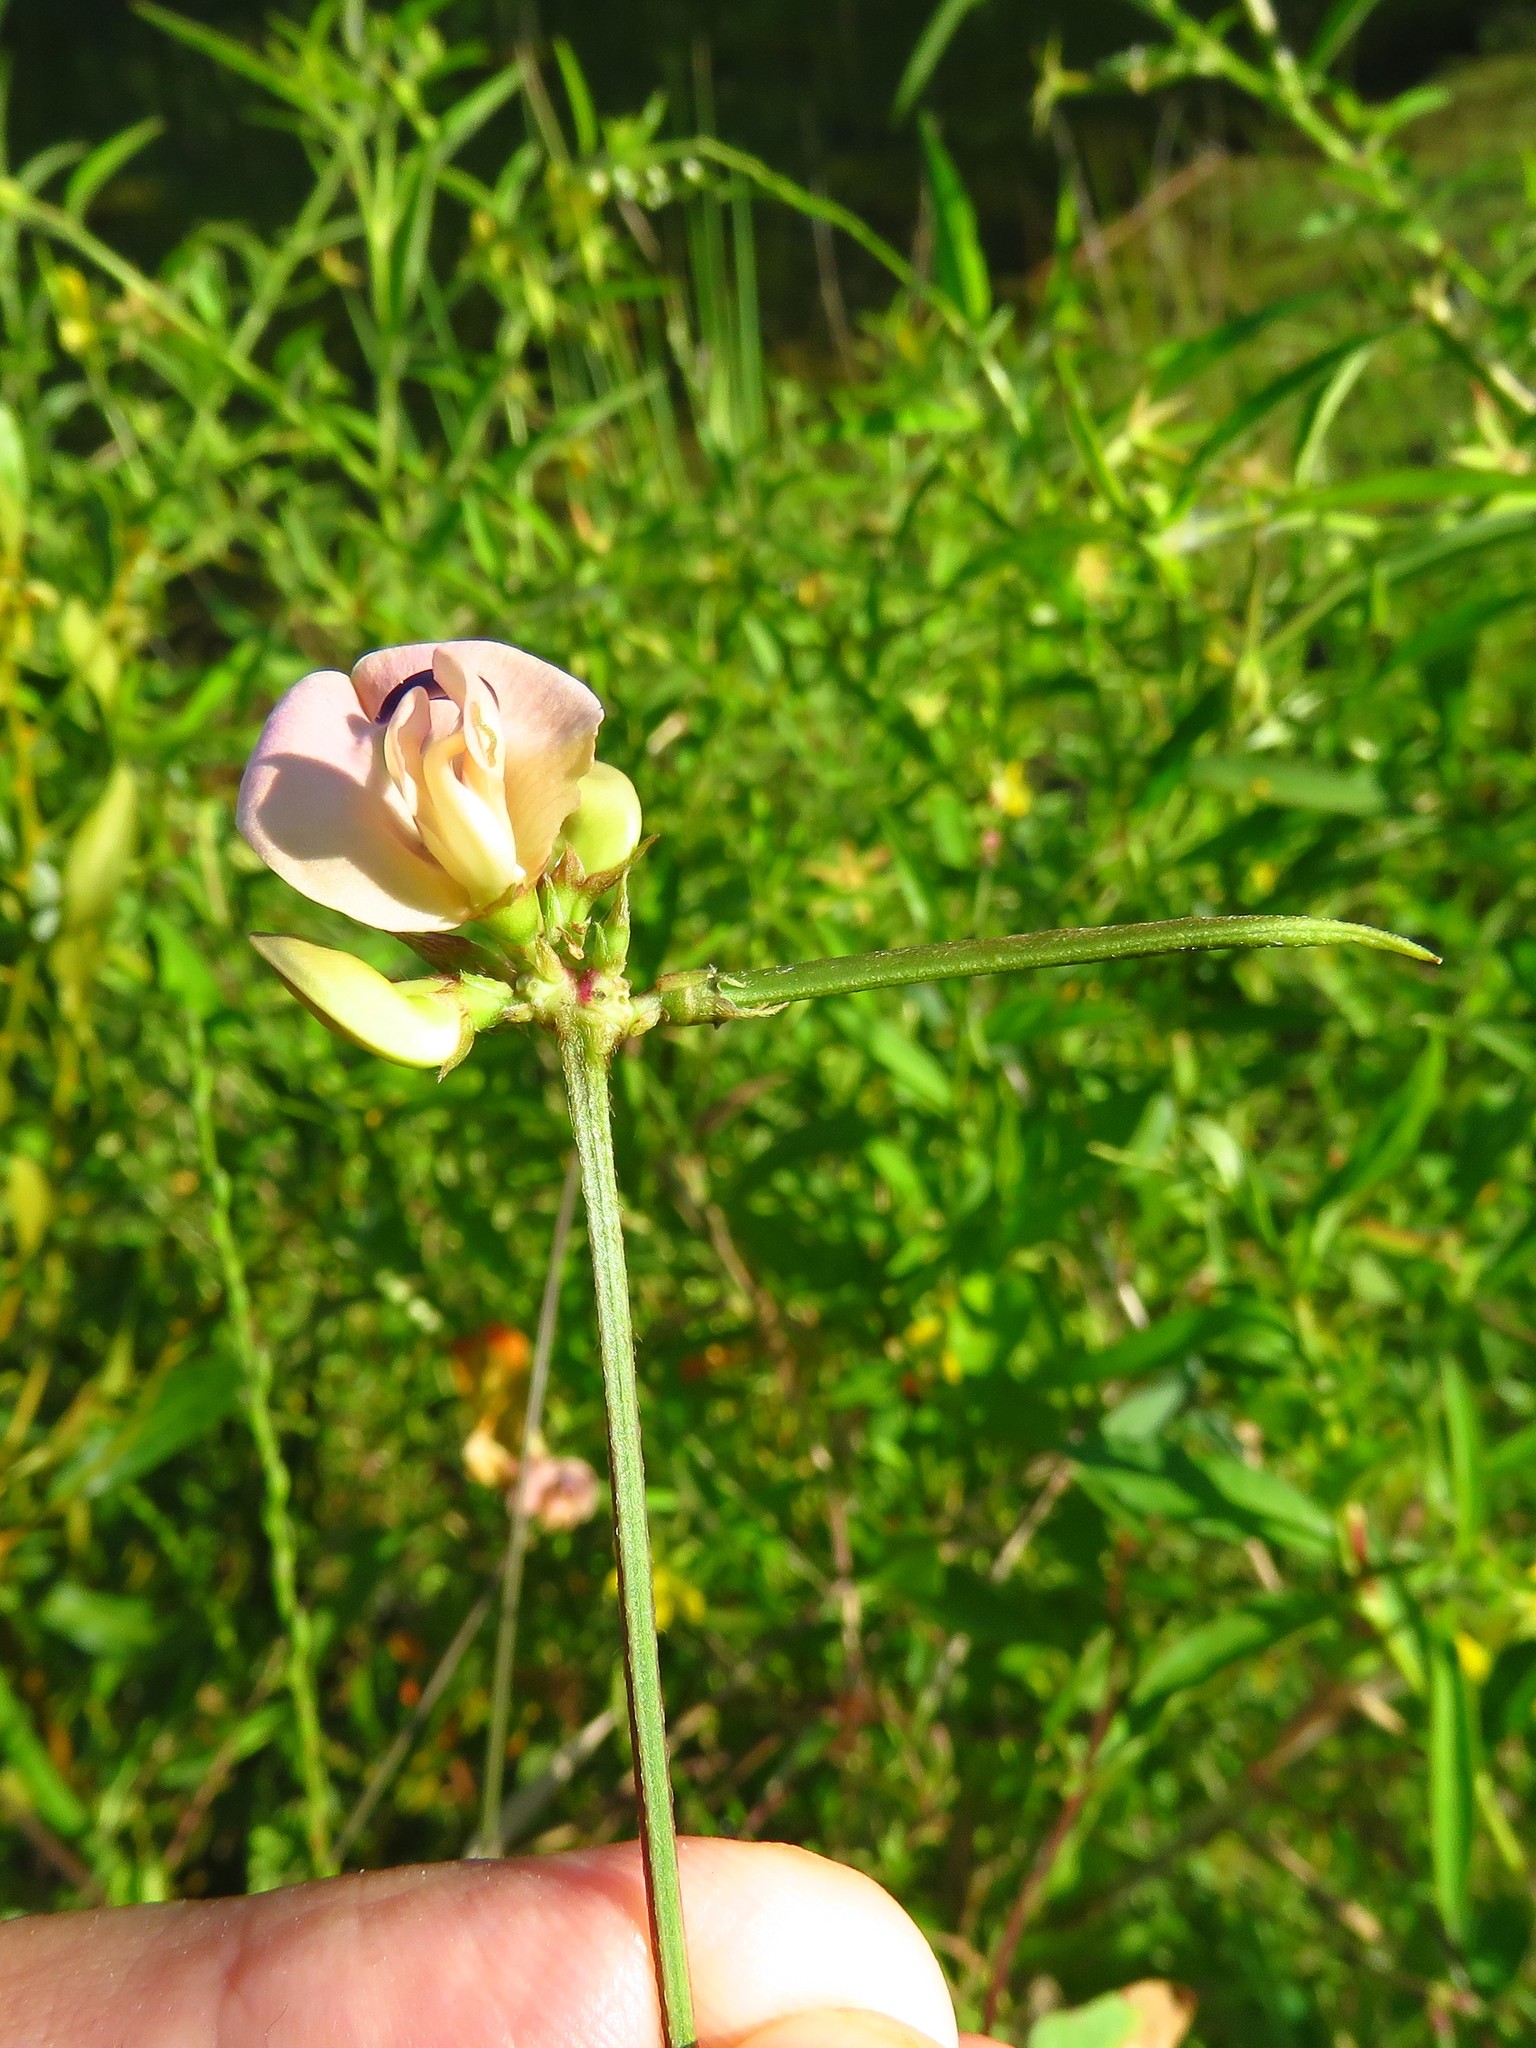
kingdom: Plantae
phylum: Tracheophyta
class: Magnoliopsida
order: Fabales
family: Fabaceae
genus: Strophostyles
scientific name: Strophostyles helvola
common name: Trailing wild bean
